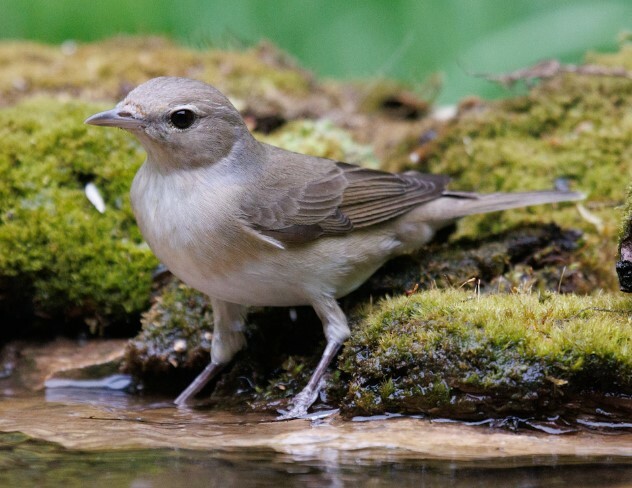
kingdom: Animalia
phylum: Chordata
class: Aves
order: Passeriformes
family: Sylviidae
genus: Sylvia
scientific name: Sylvia borin
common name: Garden warbler
